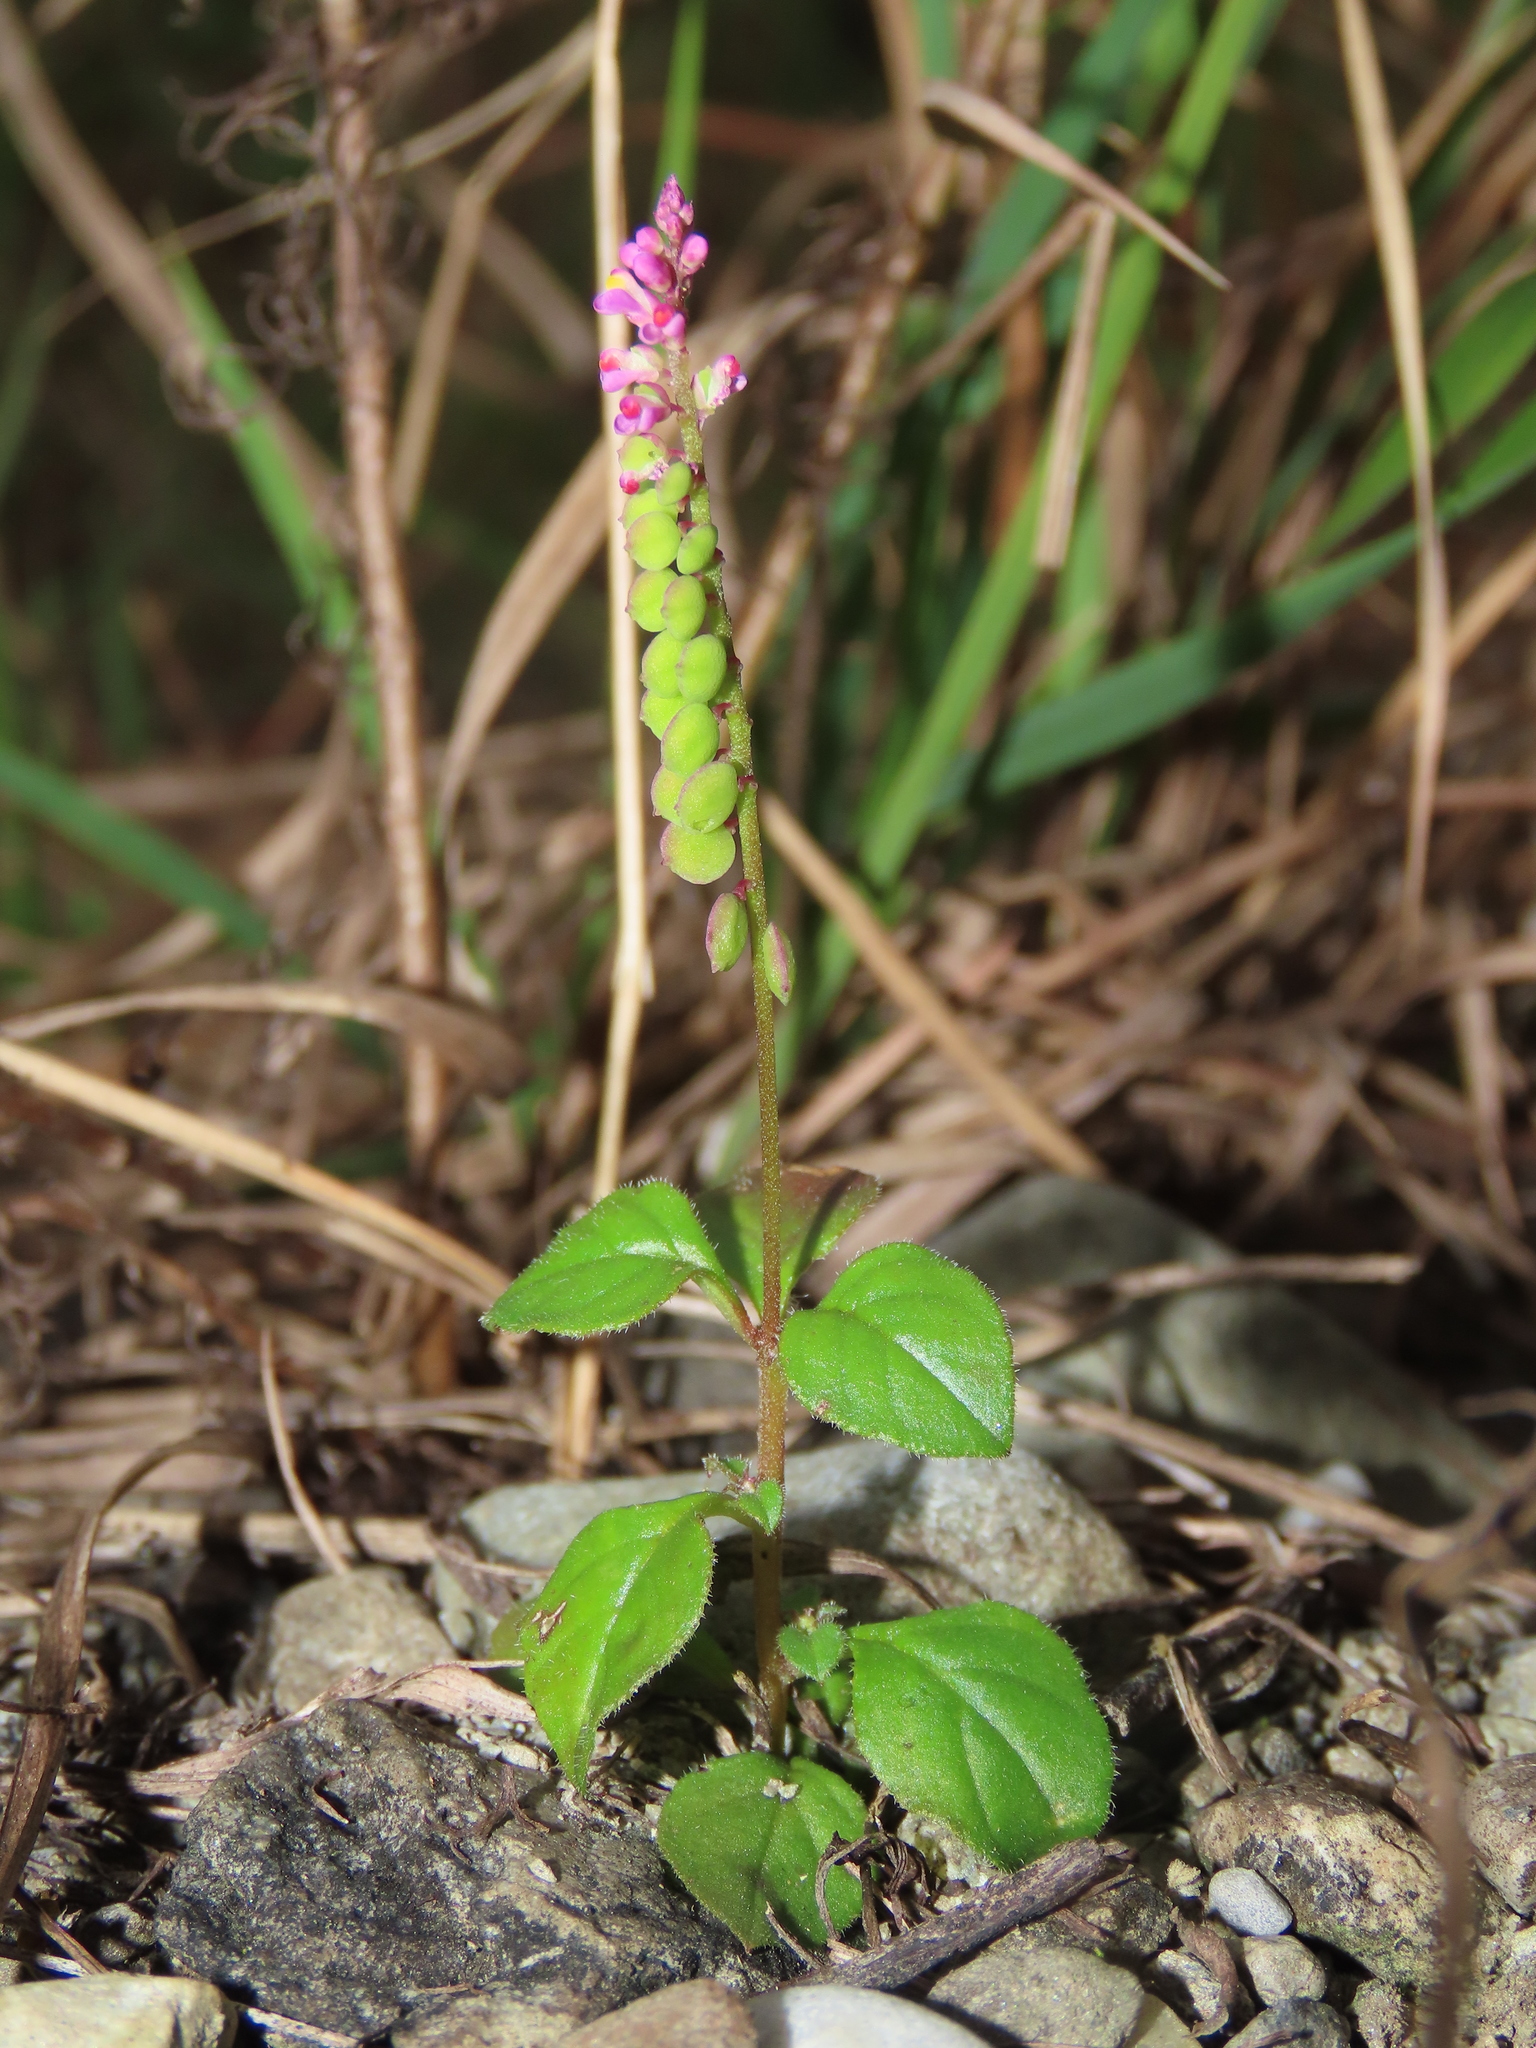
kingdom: Plantae
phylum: Tracheophyta
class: Magnoliopsida
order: Fabales
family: Polygalaceae
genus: Polygala
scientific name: Polygala tatarinowii
